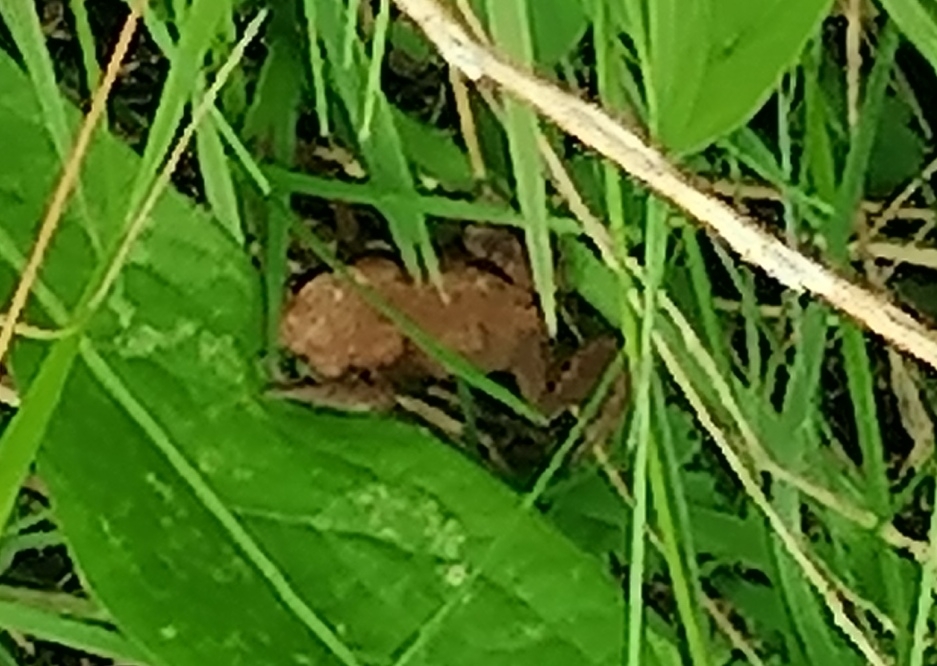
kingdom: Animalia
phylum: Chordata
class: Amphibia
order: Anura
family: Bufonidae
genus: Bufo
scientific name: Bufo bufo
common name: Common toad
